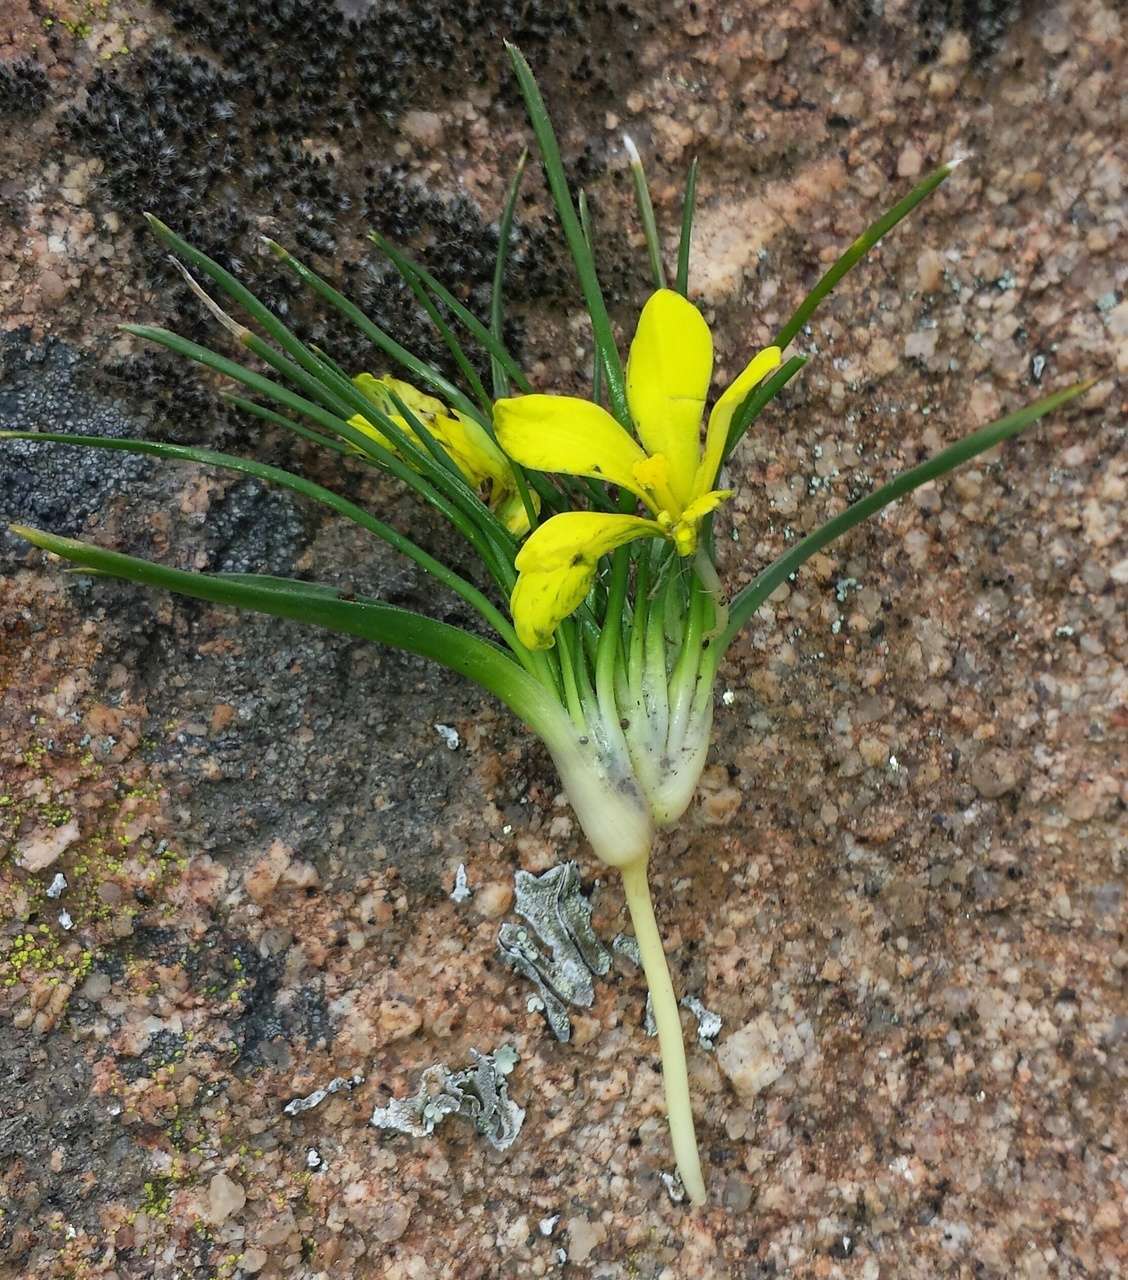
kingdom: Plantae
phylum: Tracheophyta
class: Liliopsida
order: Asparagales
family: Iridaceae
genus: Moraea
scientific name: Moraea fugacissima
